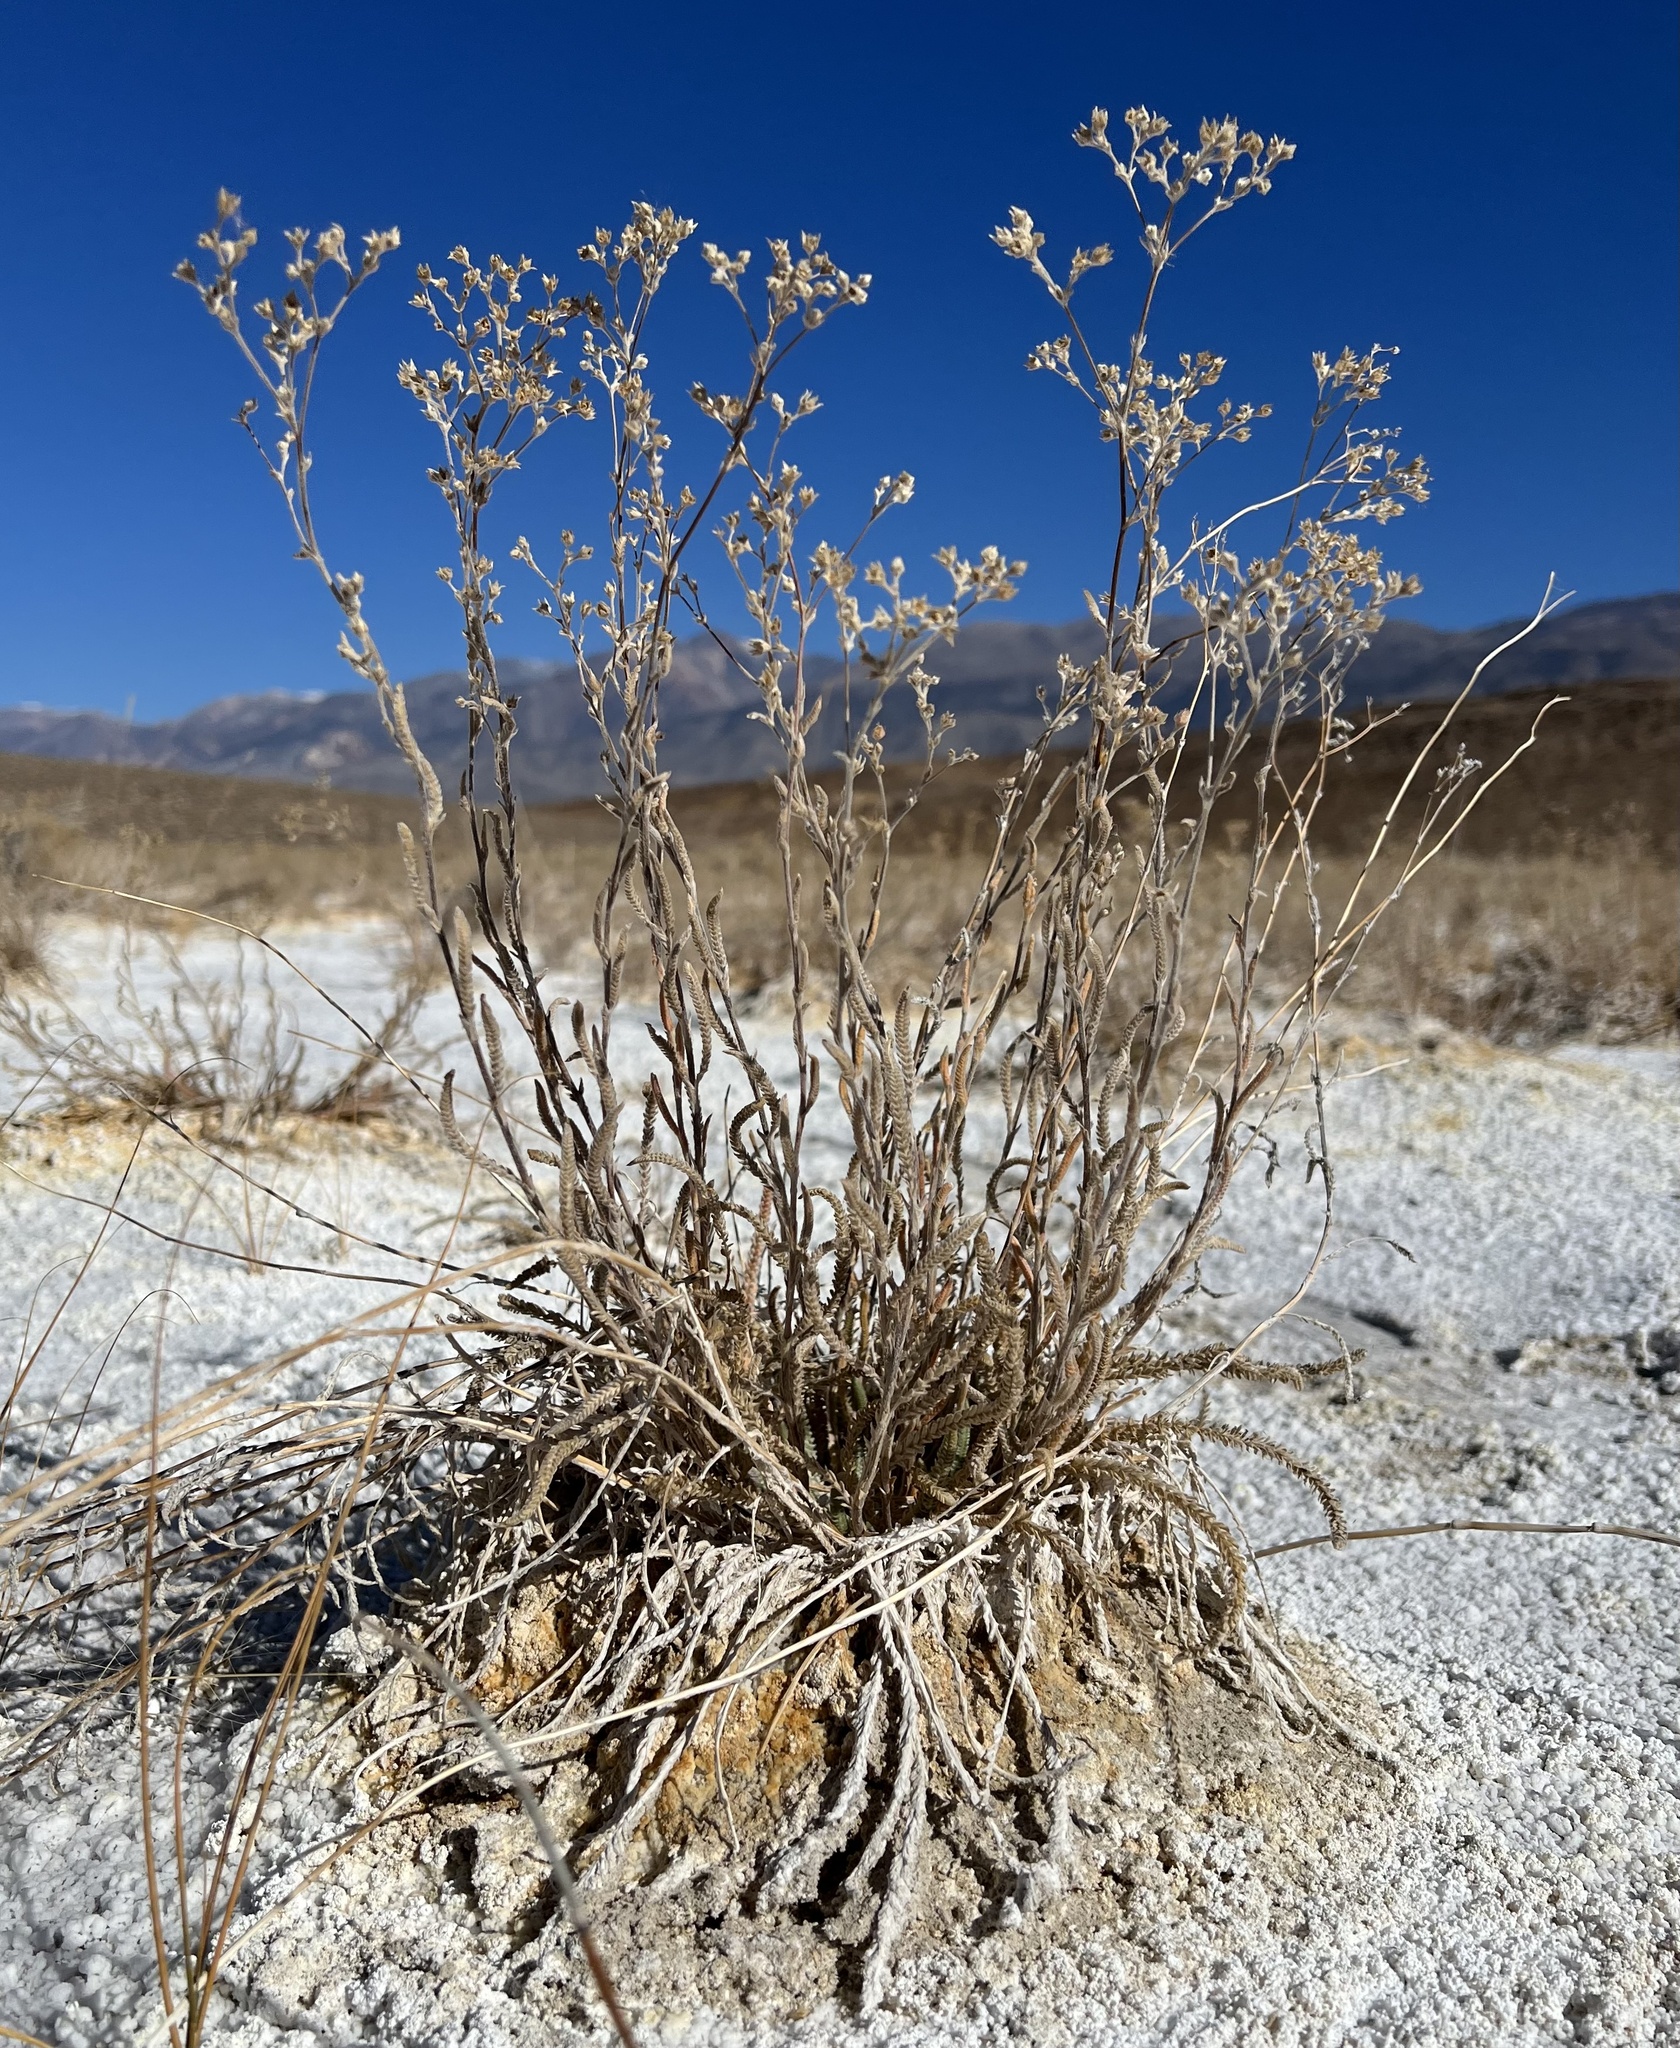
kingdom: Plantae
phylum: Tracheophyta
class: Magnoliopsida
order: Rosales
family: Rosaceae
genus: Potentilla
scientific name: Potentilla kingii
